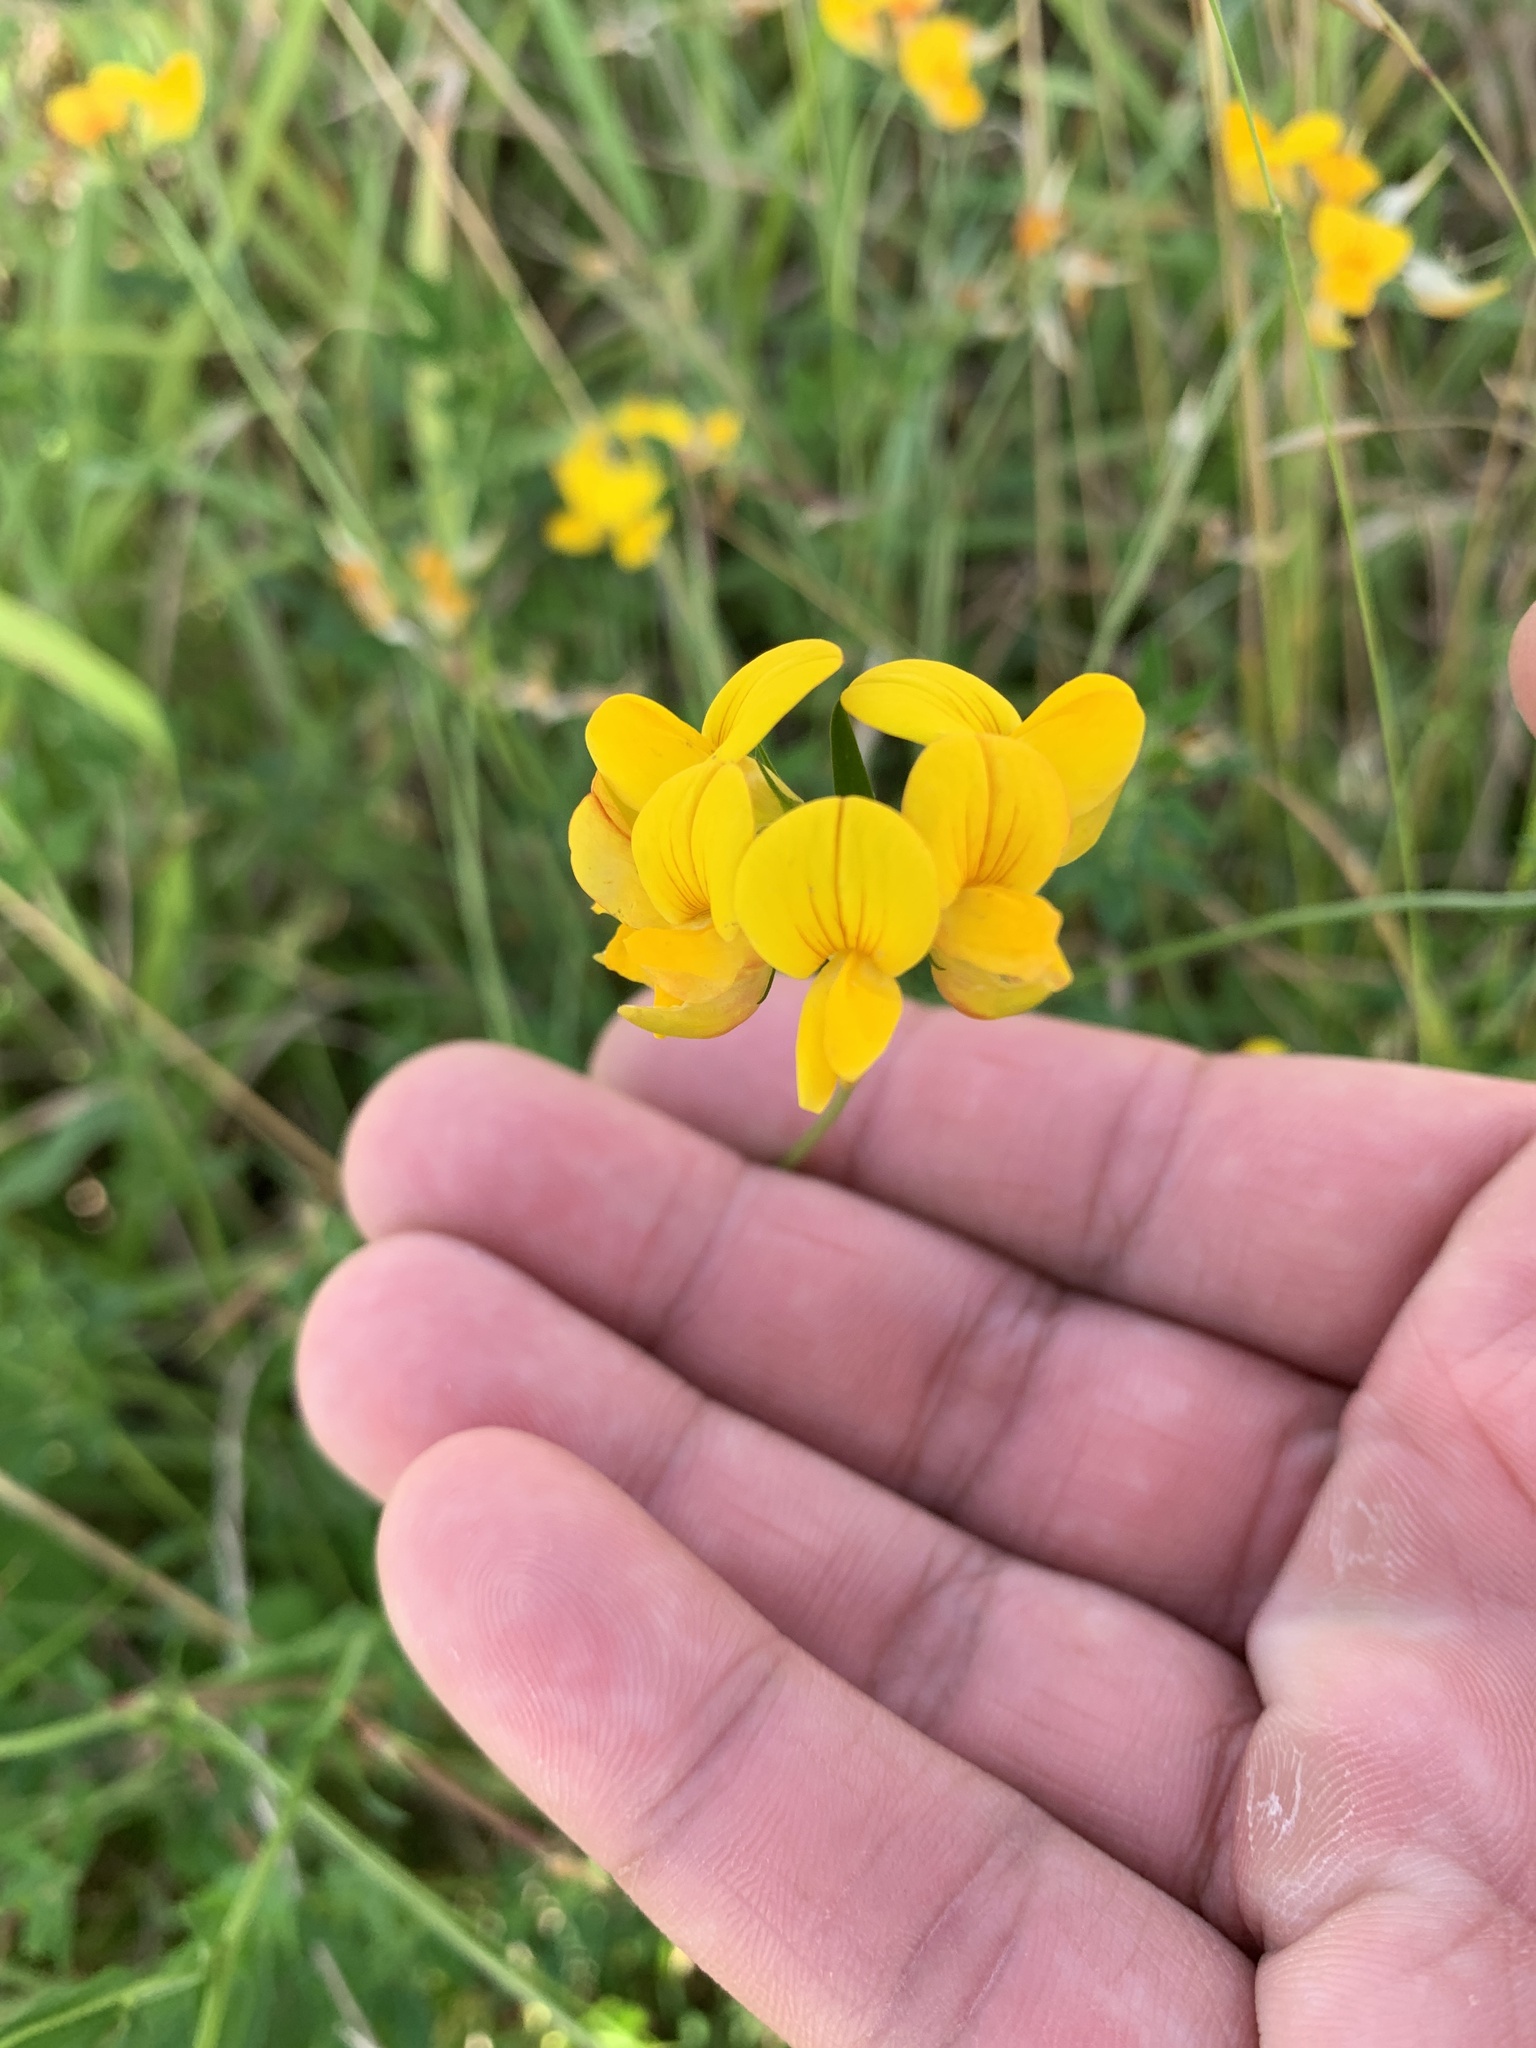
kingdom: Plantae
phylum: Tracheophyta
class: Magnoliopsida
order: Fabales
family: Fabaceae
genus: Lotus
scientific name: Lotus corniculatus
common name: Common bird's-foot-trefoil
